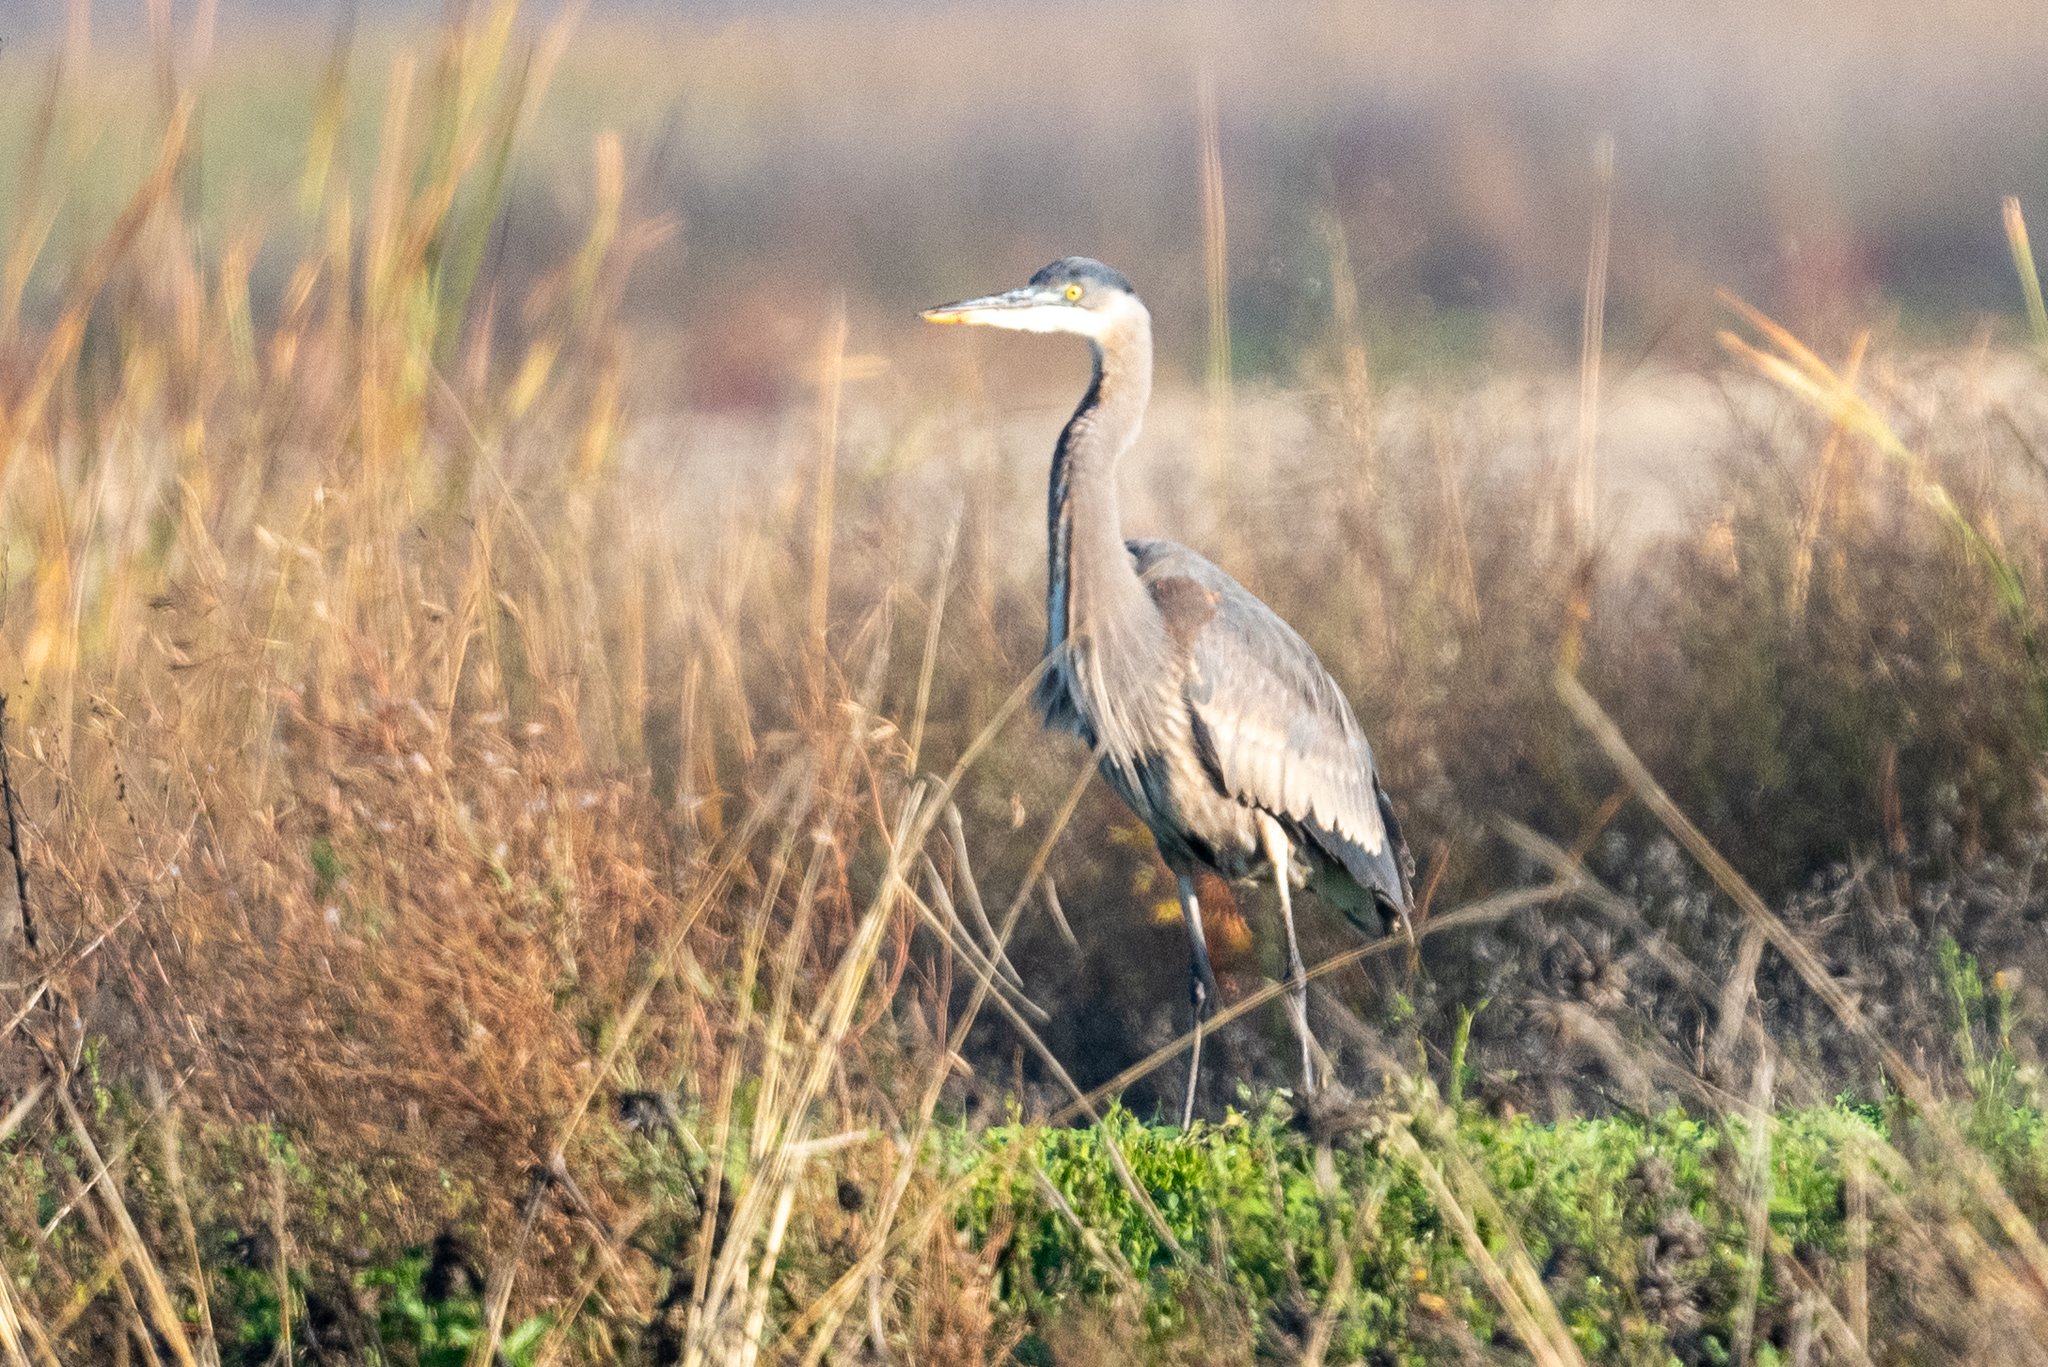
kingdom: Animalia
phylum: Chordata
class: Aves
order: Pelecaniformes
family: Ardeidae
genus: Ardea
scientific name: Ardea herodias
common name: Great blue heron
